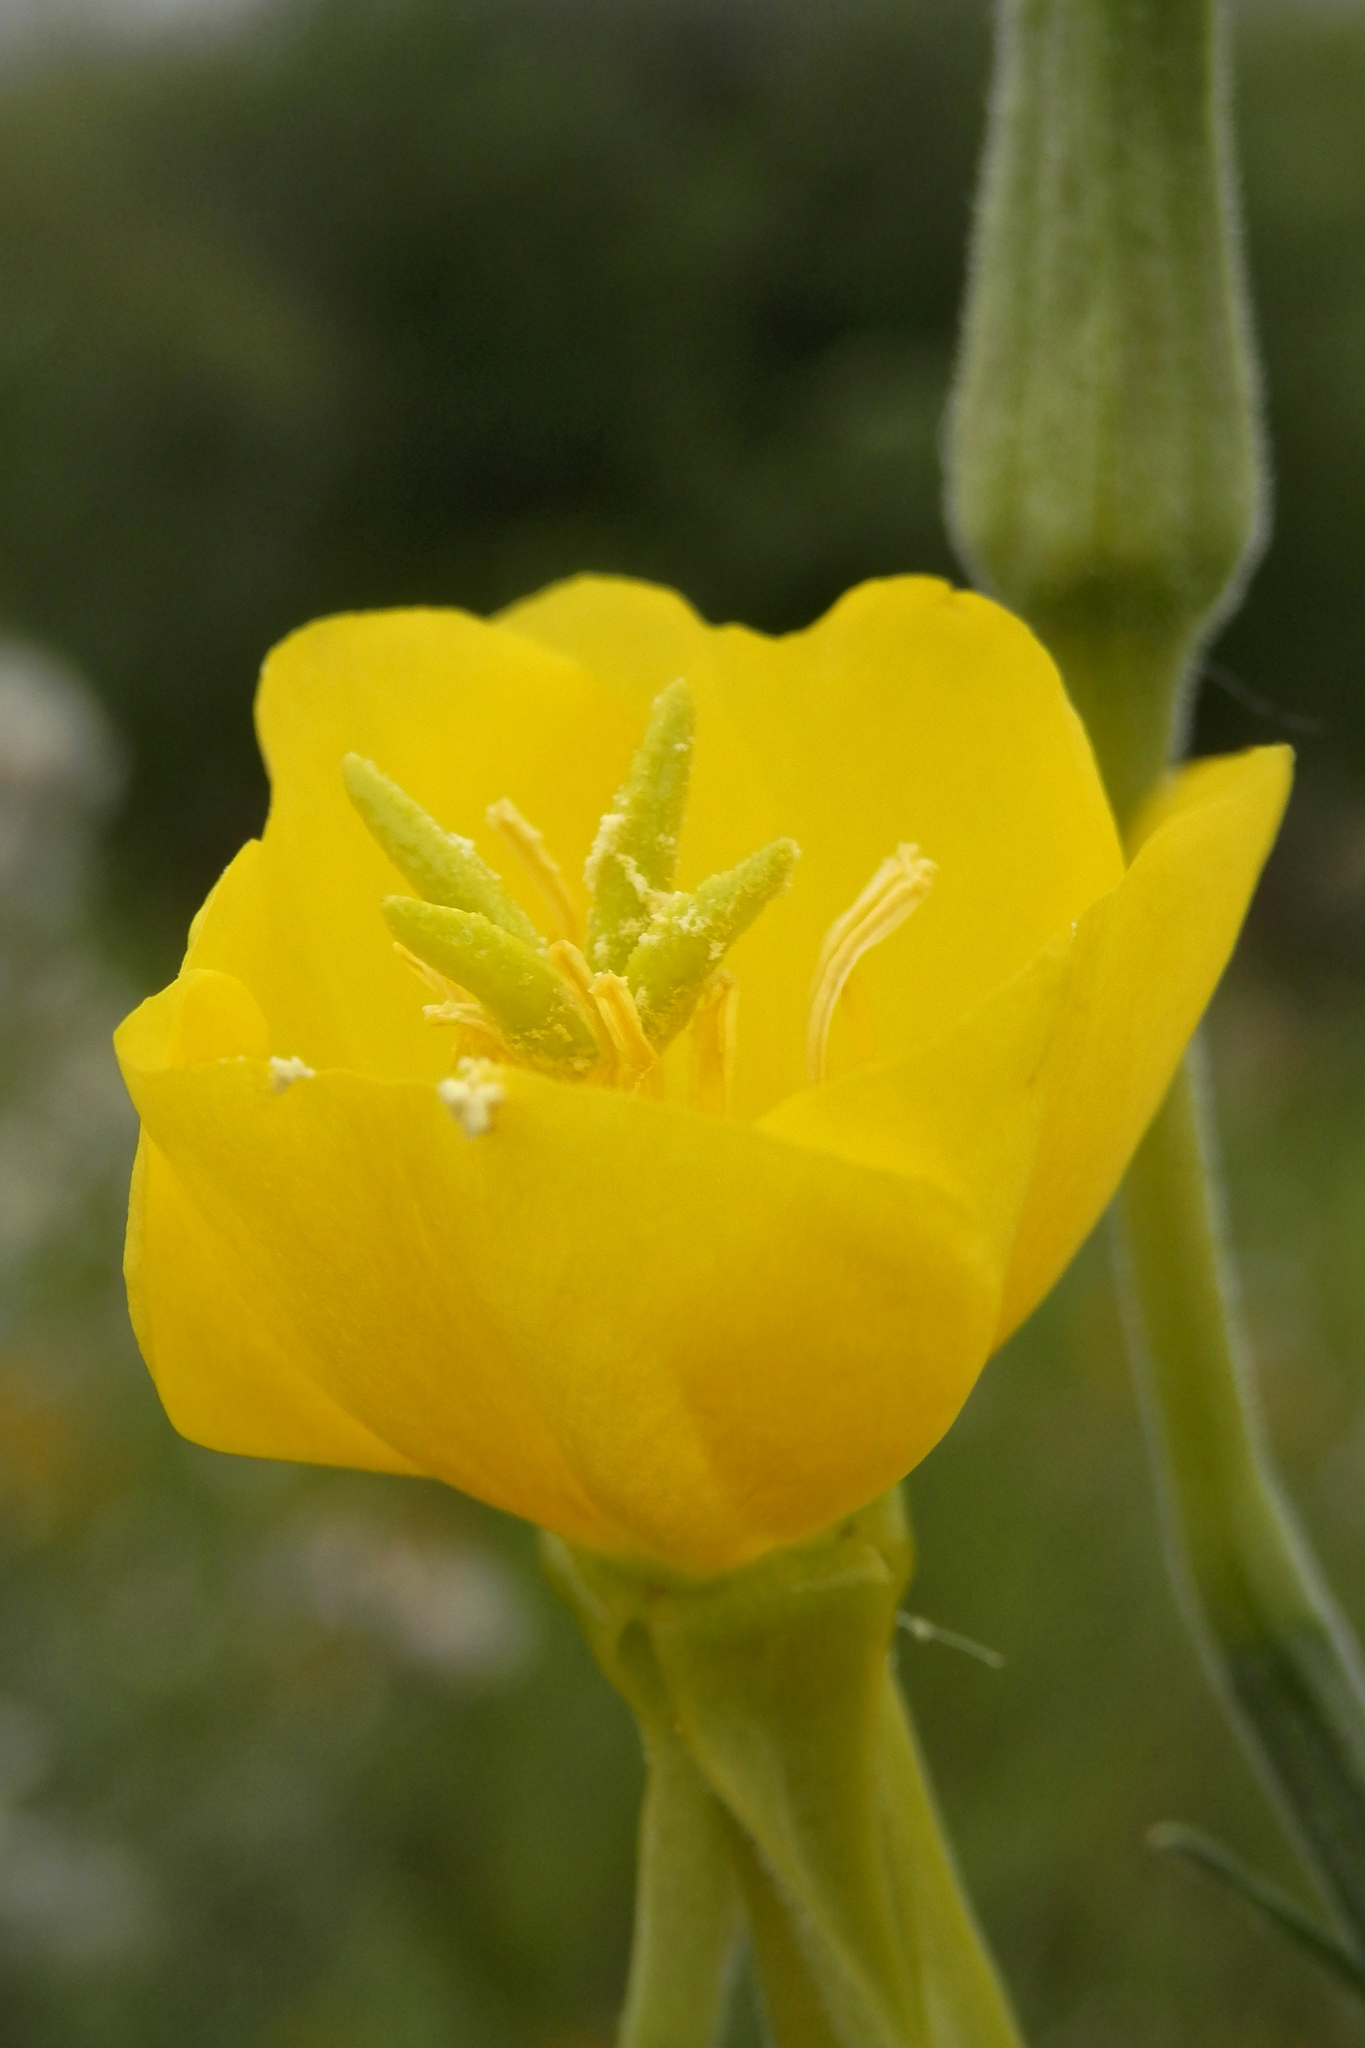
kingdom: Plantae
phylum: Tracheophyta
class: Magnoliopsida
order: Myrtales
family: Onagraceae
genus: Oenothera
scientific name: Oenothera biennis
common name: Common evening-primrose
